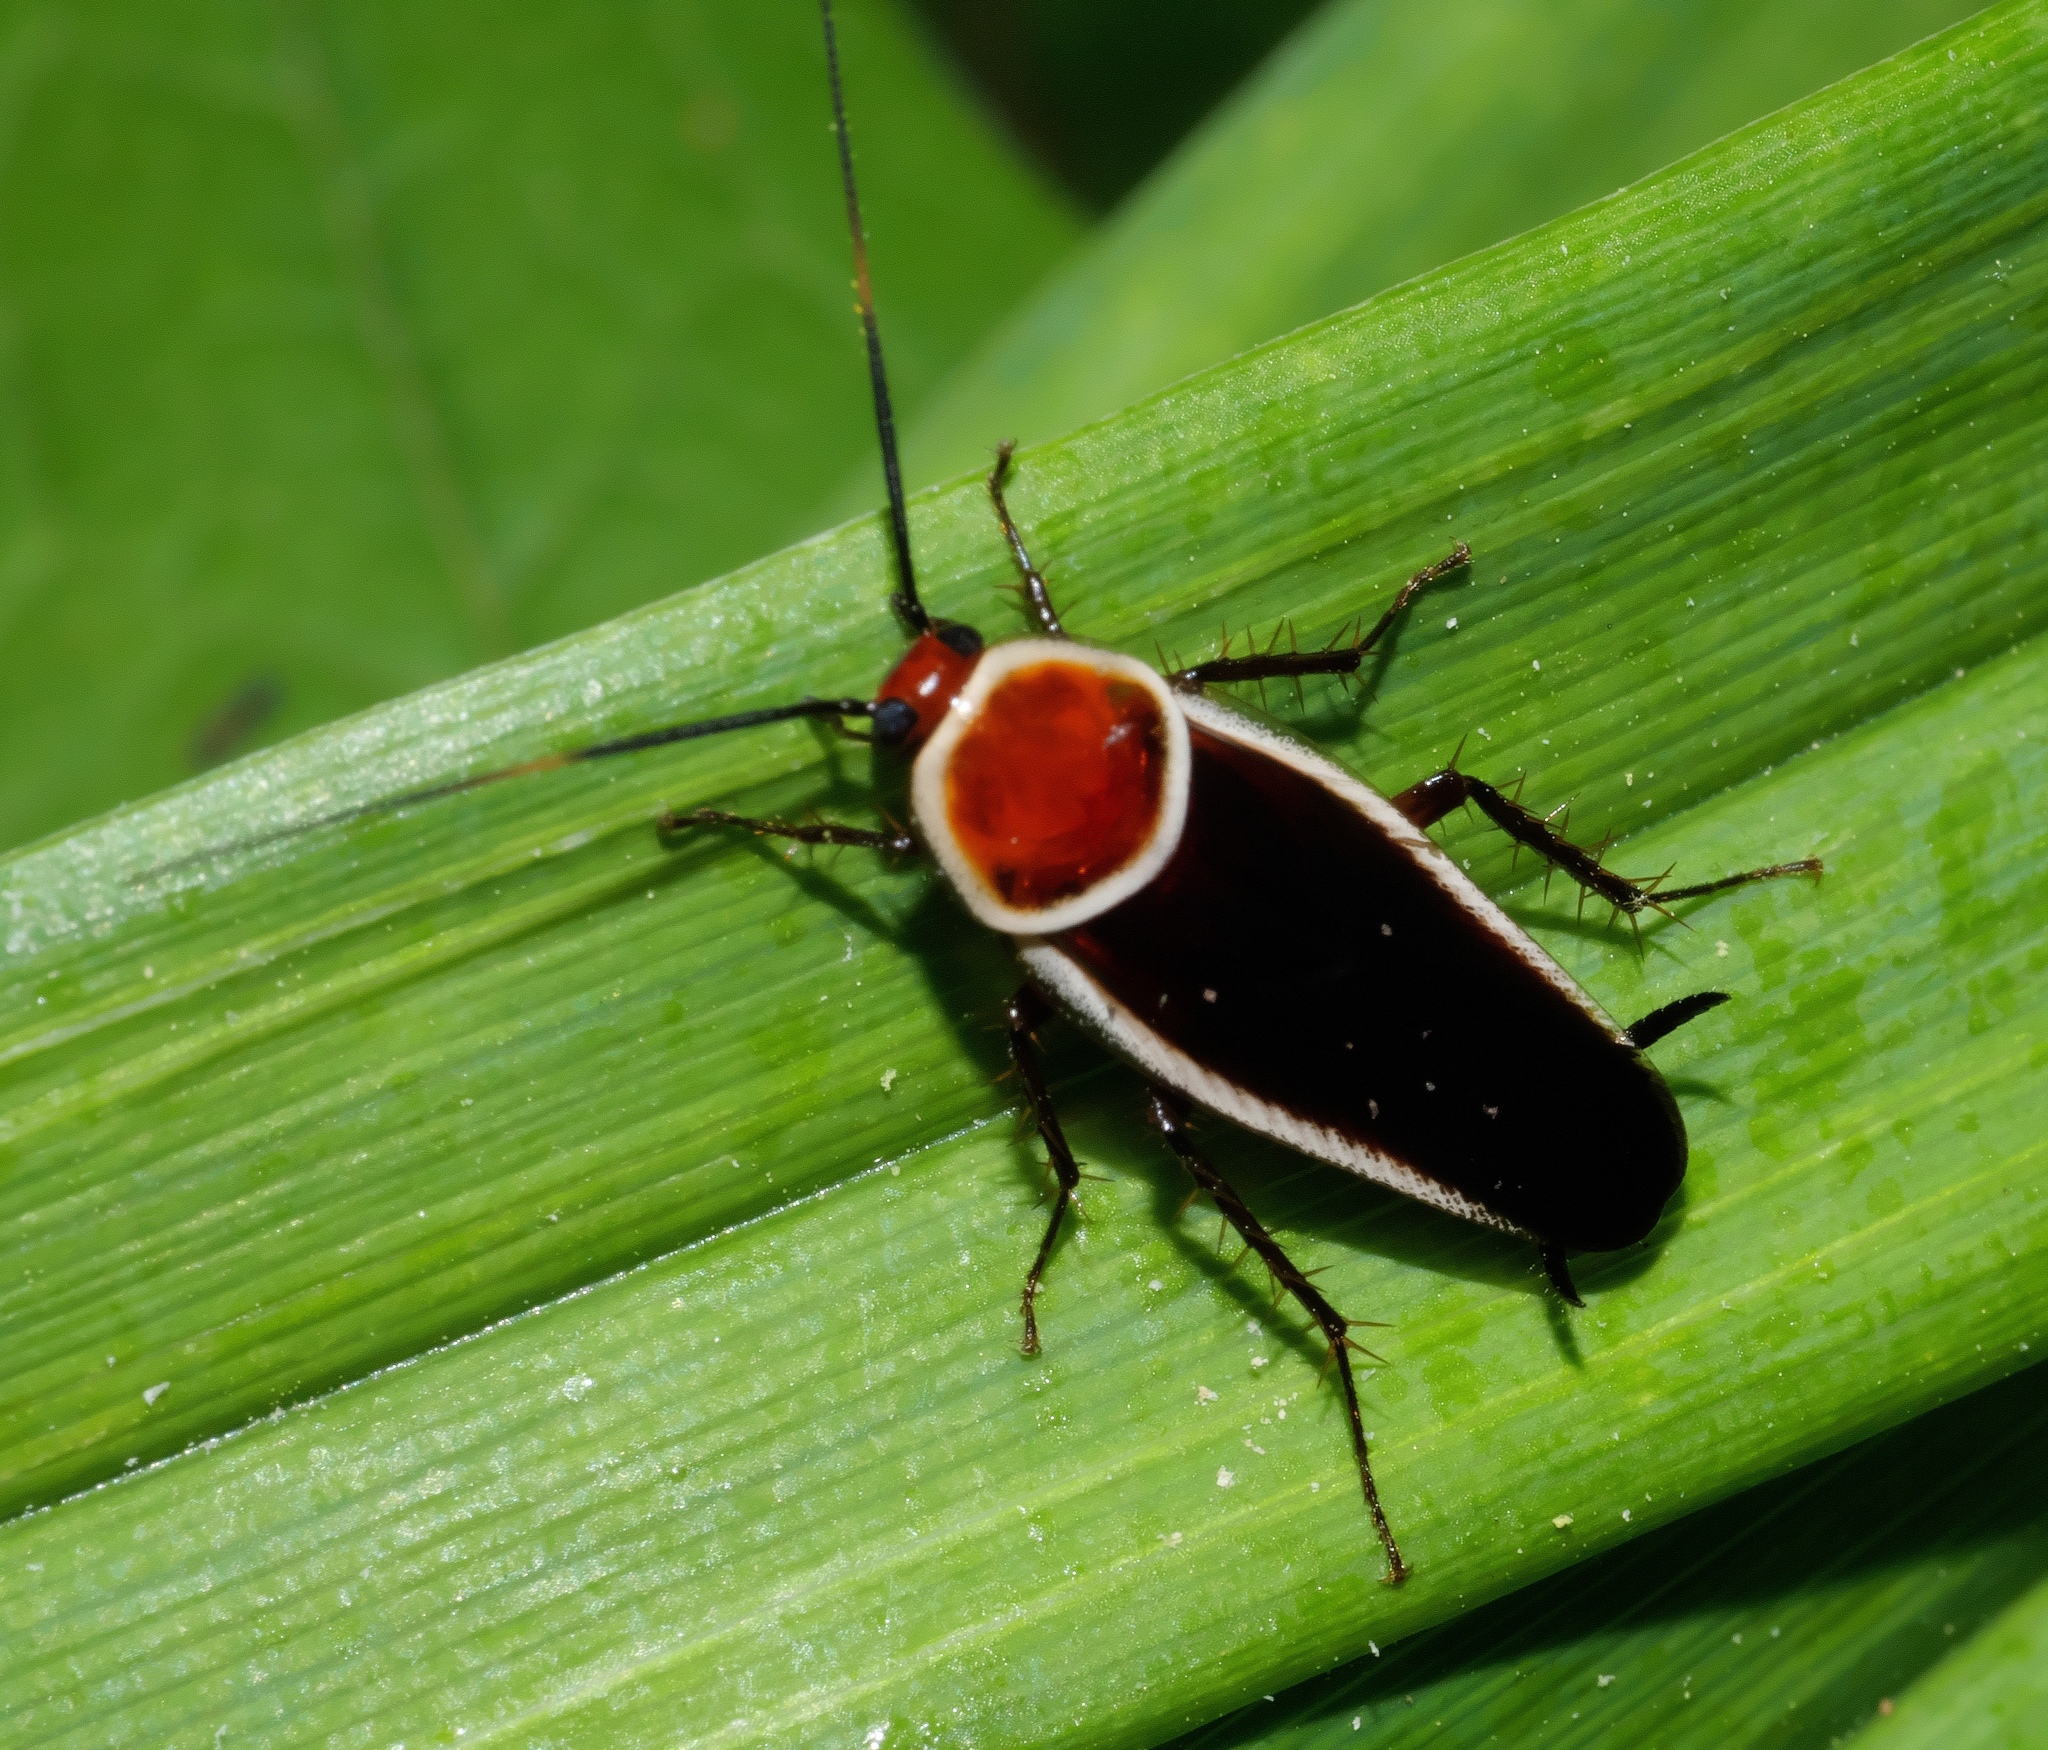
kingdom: Animalia
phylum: Arthropoda
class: Insecta
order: Blattodea
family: Ectobiidae
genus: Pseudomops
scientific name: Pseudomops septentrionalis
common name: Pale-bordered field cockroach
